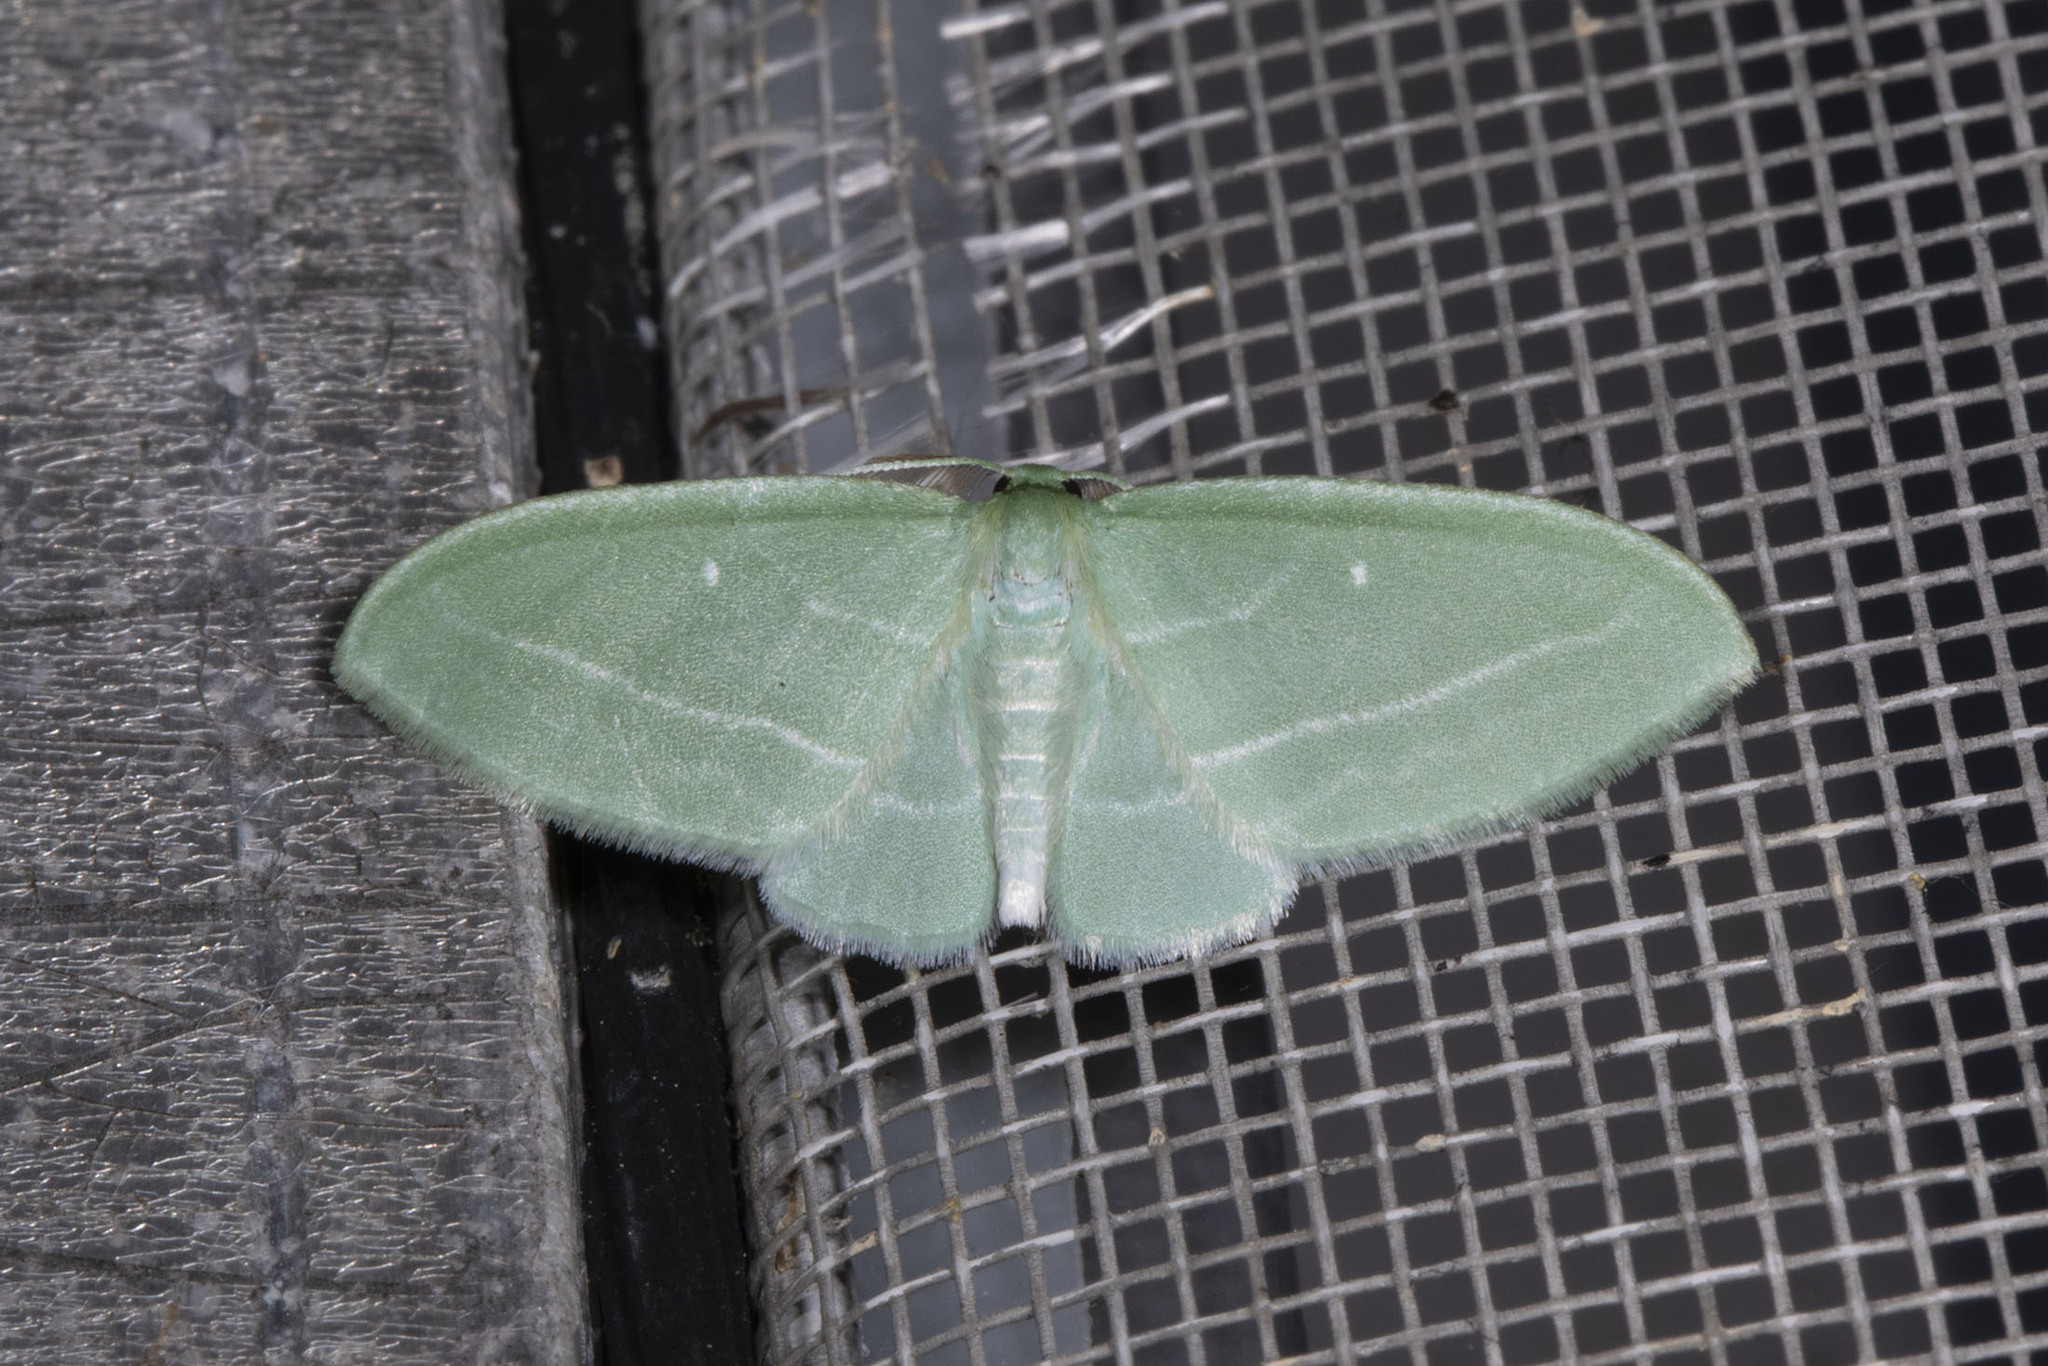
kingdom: Animalia
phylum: Arthropoda
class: Insecta
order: Lepidoptera
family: Geometridae
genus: Dyspteris
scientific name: Dyspteris abortivaria
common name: Bad-wing
